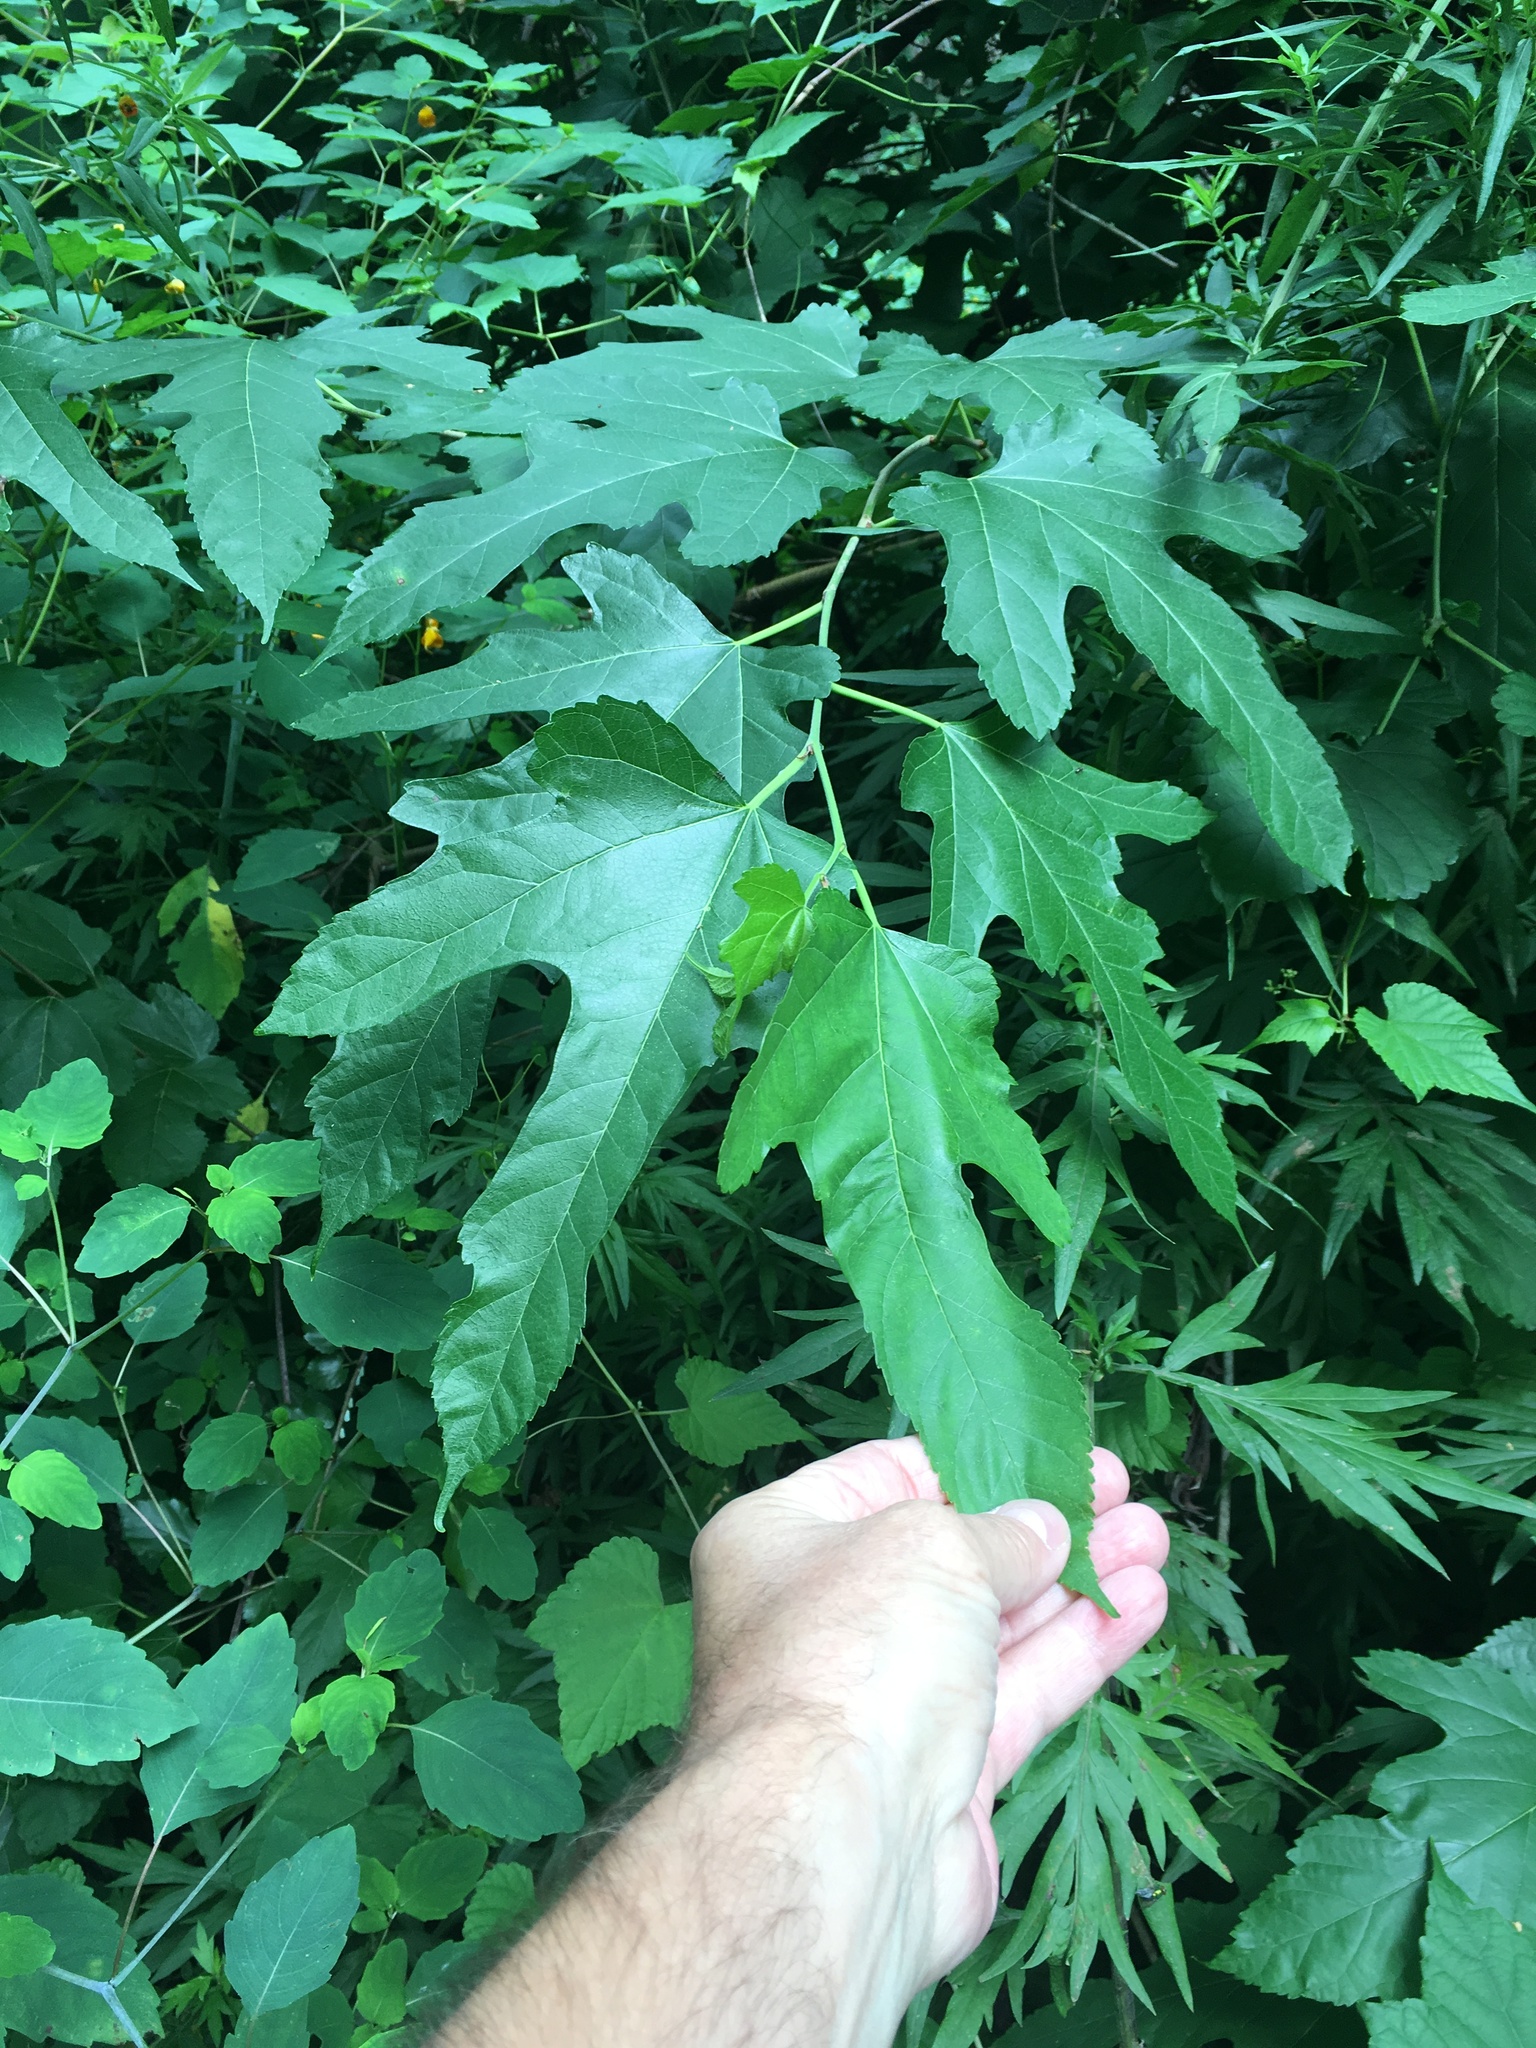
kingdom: Plantae
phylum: Tracheophyta
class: Magnoliopsida
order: Rosales
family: Moraceae
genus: Morus
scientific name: Morus alba
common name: White mulberry
